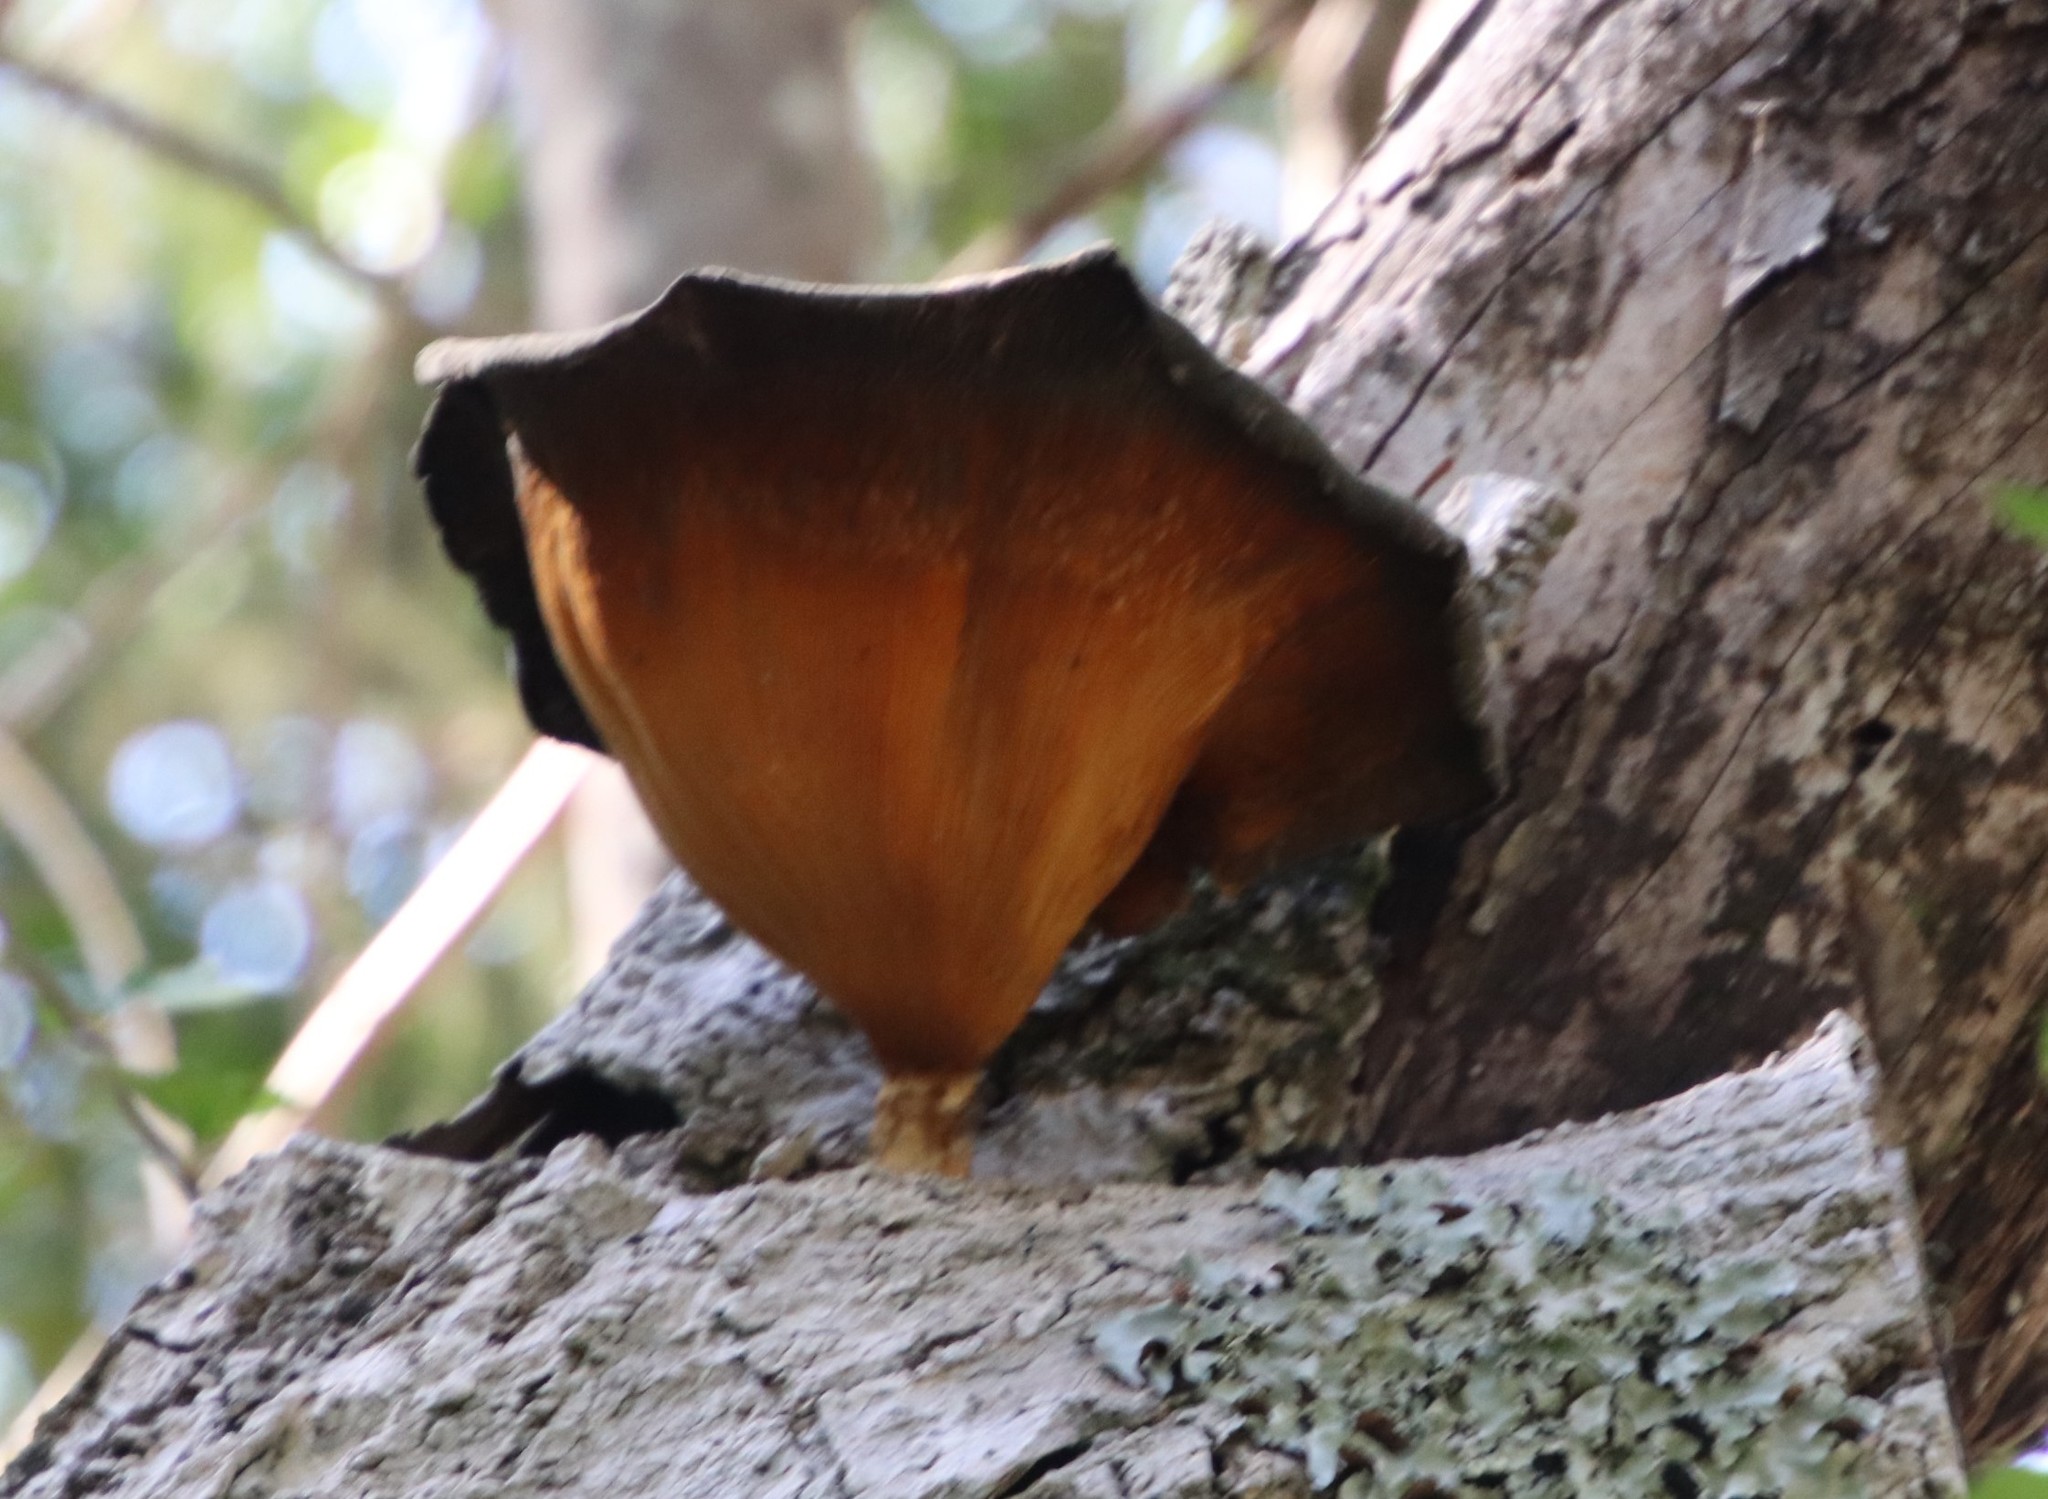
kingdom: Fungi
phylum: Basidiomycota
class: Agaricomycetes
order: Polyporales
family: Polyporaceae
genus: Lentinus
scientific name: Lentinus sajor-caju
